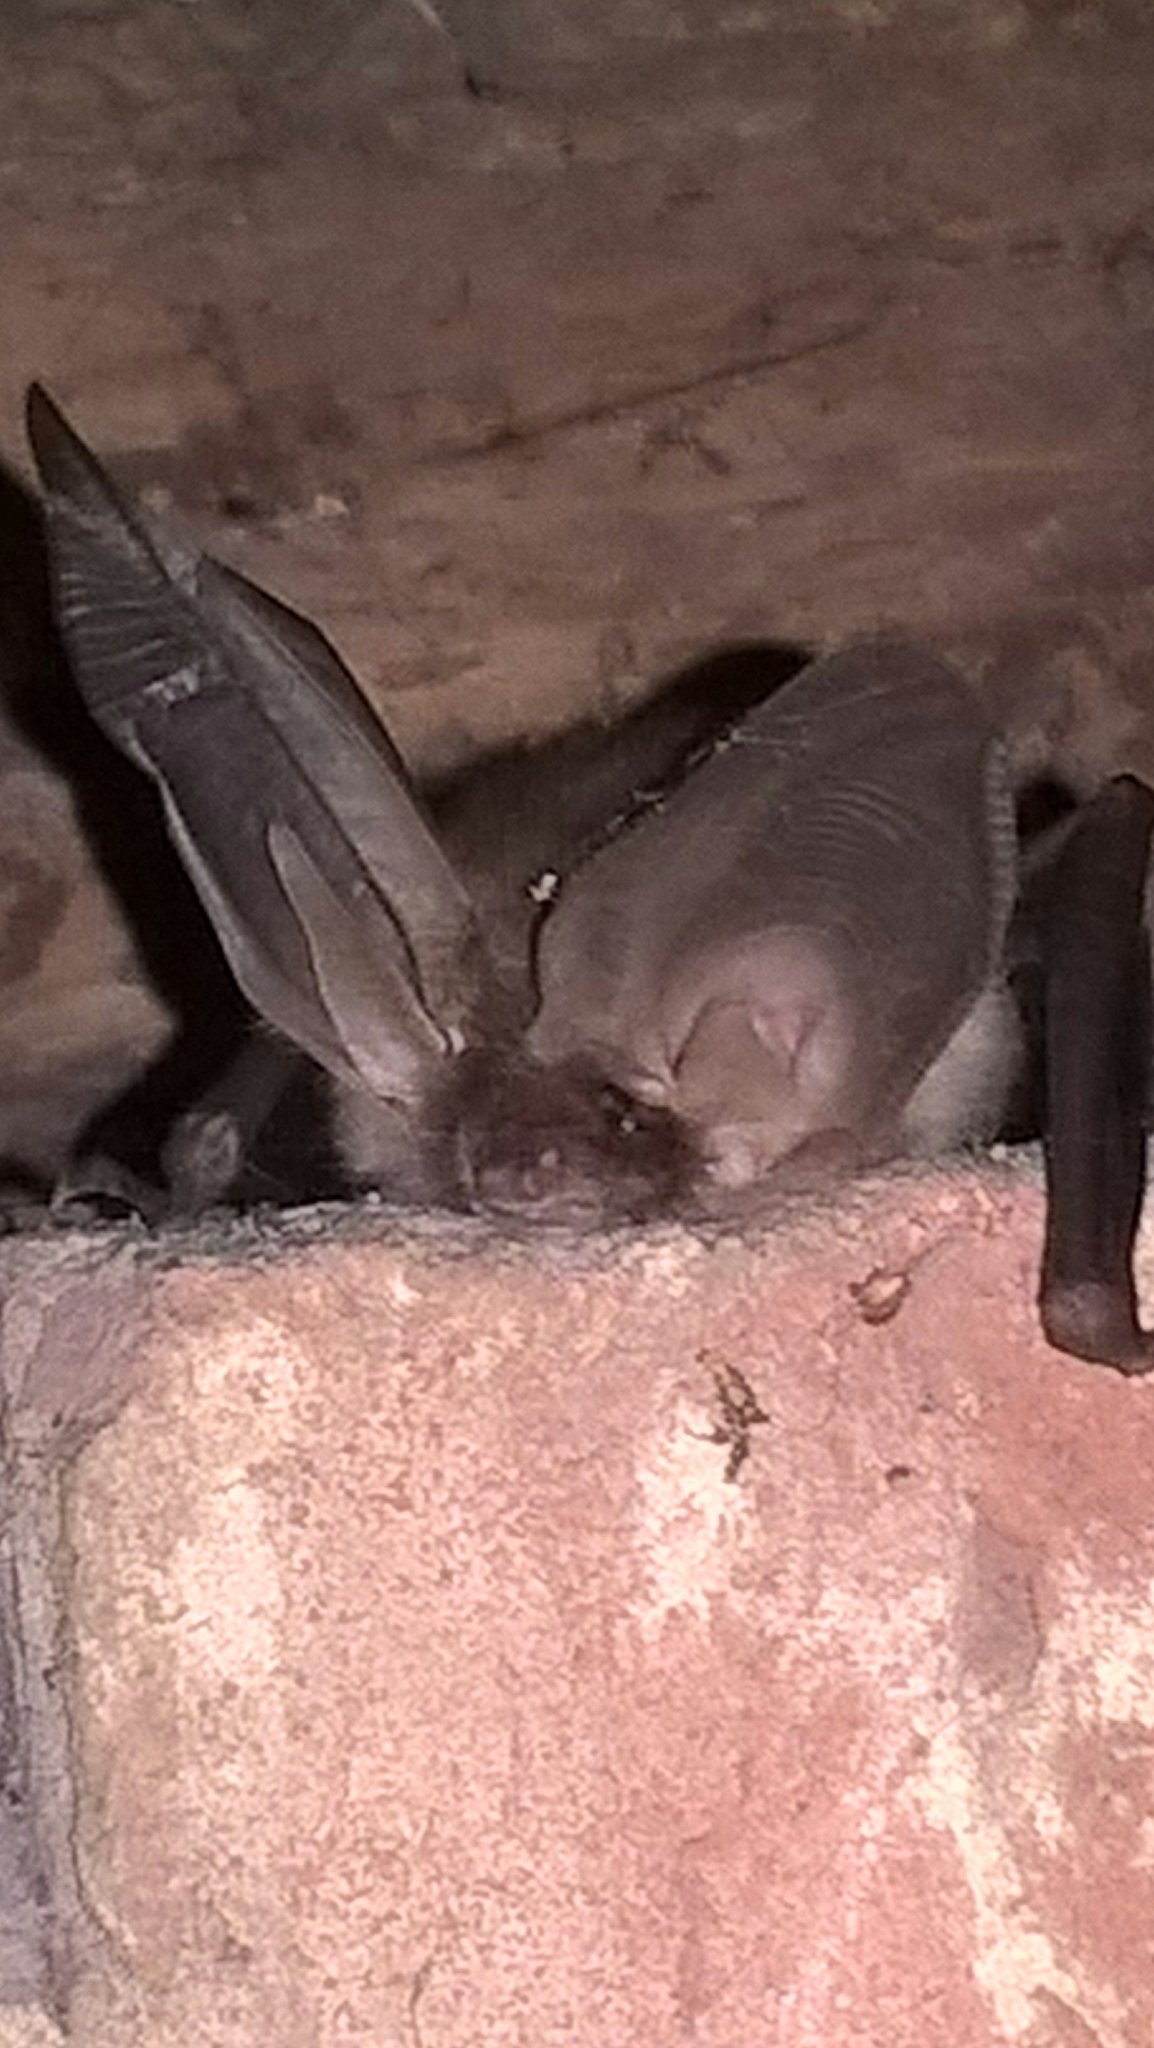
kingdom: Animalia
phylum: Chordata
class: Mammalia
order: Chiroptera
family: Vespertilionidae
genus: Plecotus
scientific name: Plecotus auritus
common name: Brown long-eared bat
